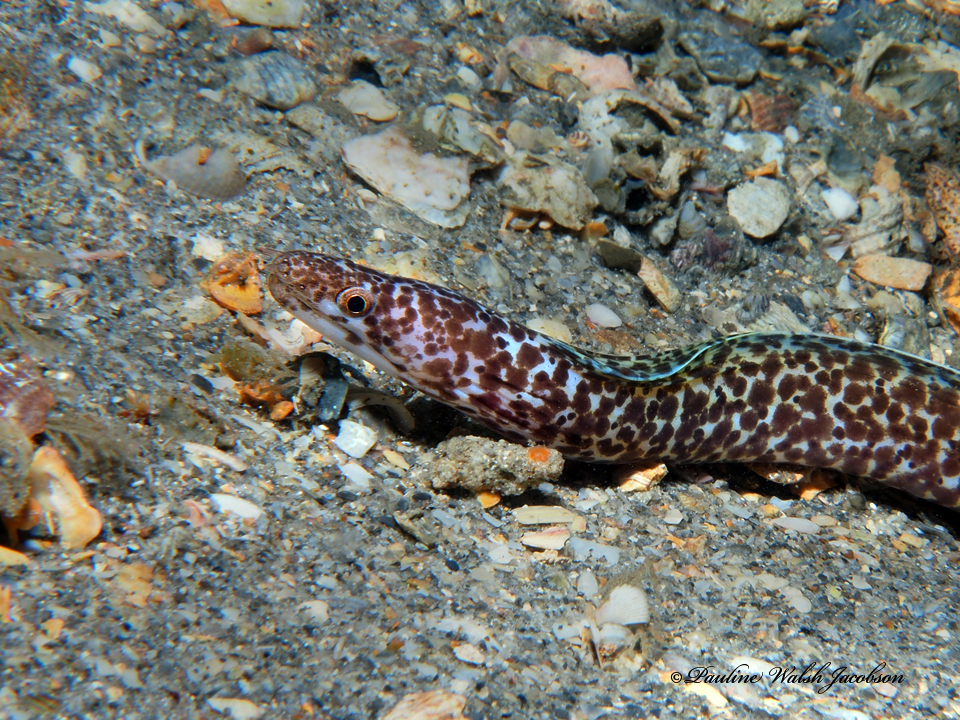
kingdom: Animalia
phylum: Chordata
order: Anguilliformes
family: Muraenidae
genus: Gymnothorax
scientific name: Gymnothorax moringa
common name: Spotted moray
